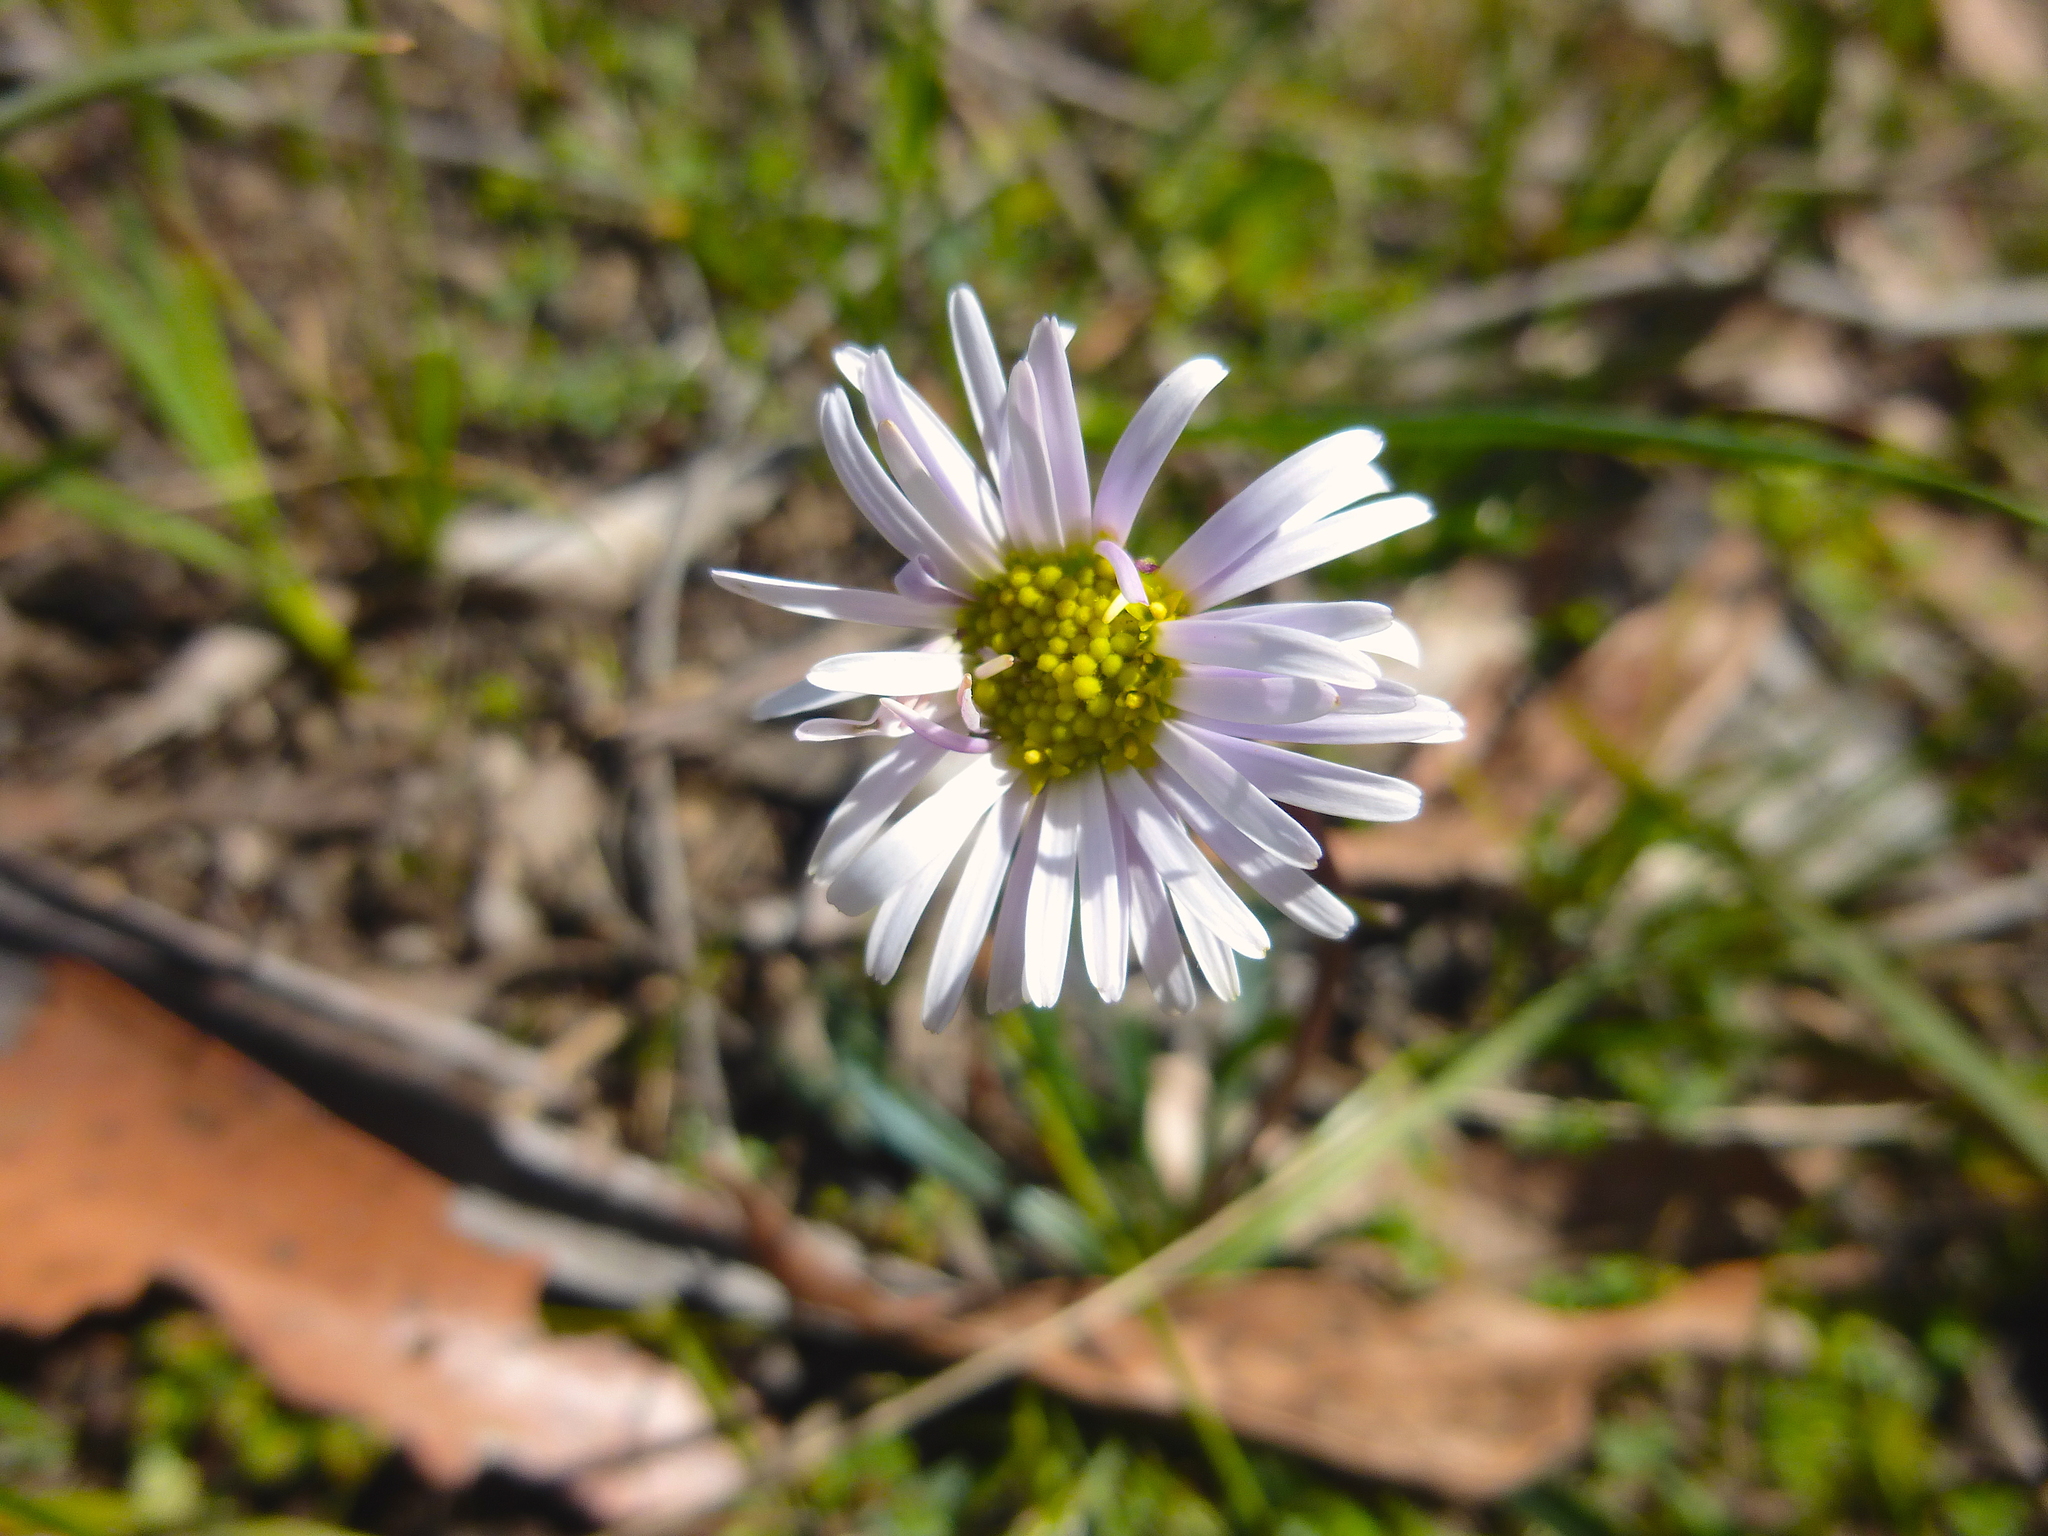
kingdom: Plantae
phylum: Tracheophyta
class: Magnoliopsida
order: Asterales
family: Asteraceae
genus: Allittia
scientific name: Allittia uliginosa
